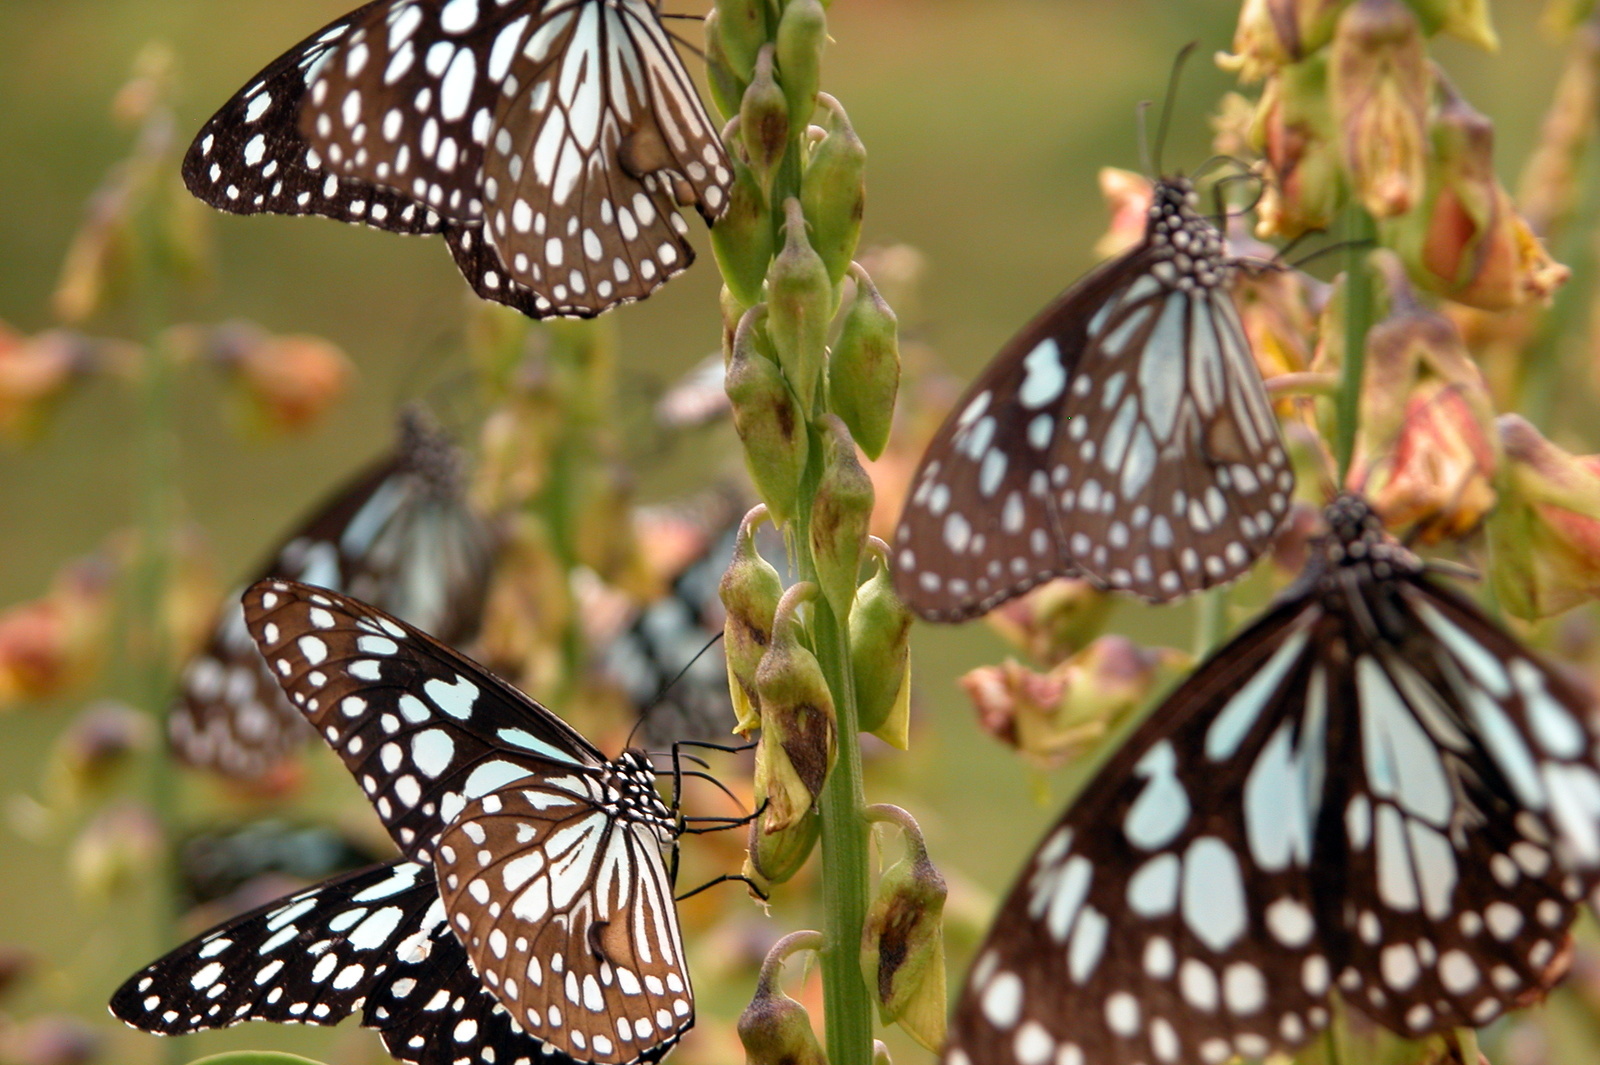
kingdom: Animalia
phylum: Arthropoda
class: Insecta
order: Lepidoptera
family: Nymphalidae
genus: Tirumala
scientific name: Tirumala limniace
